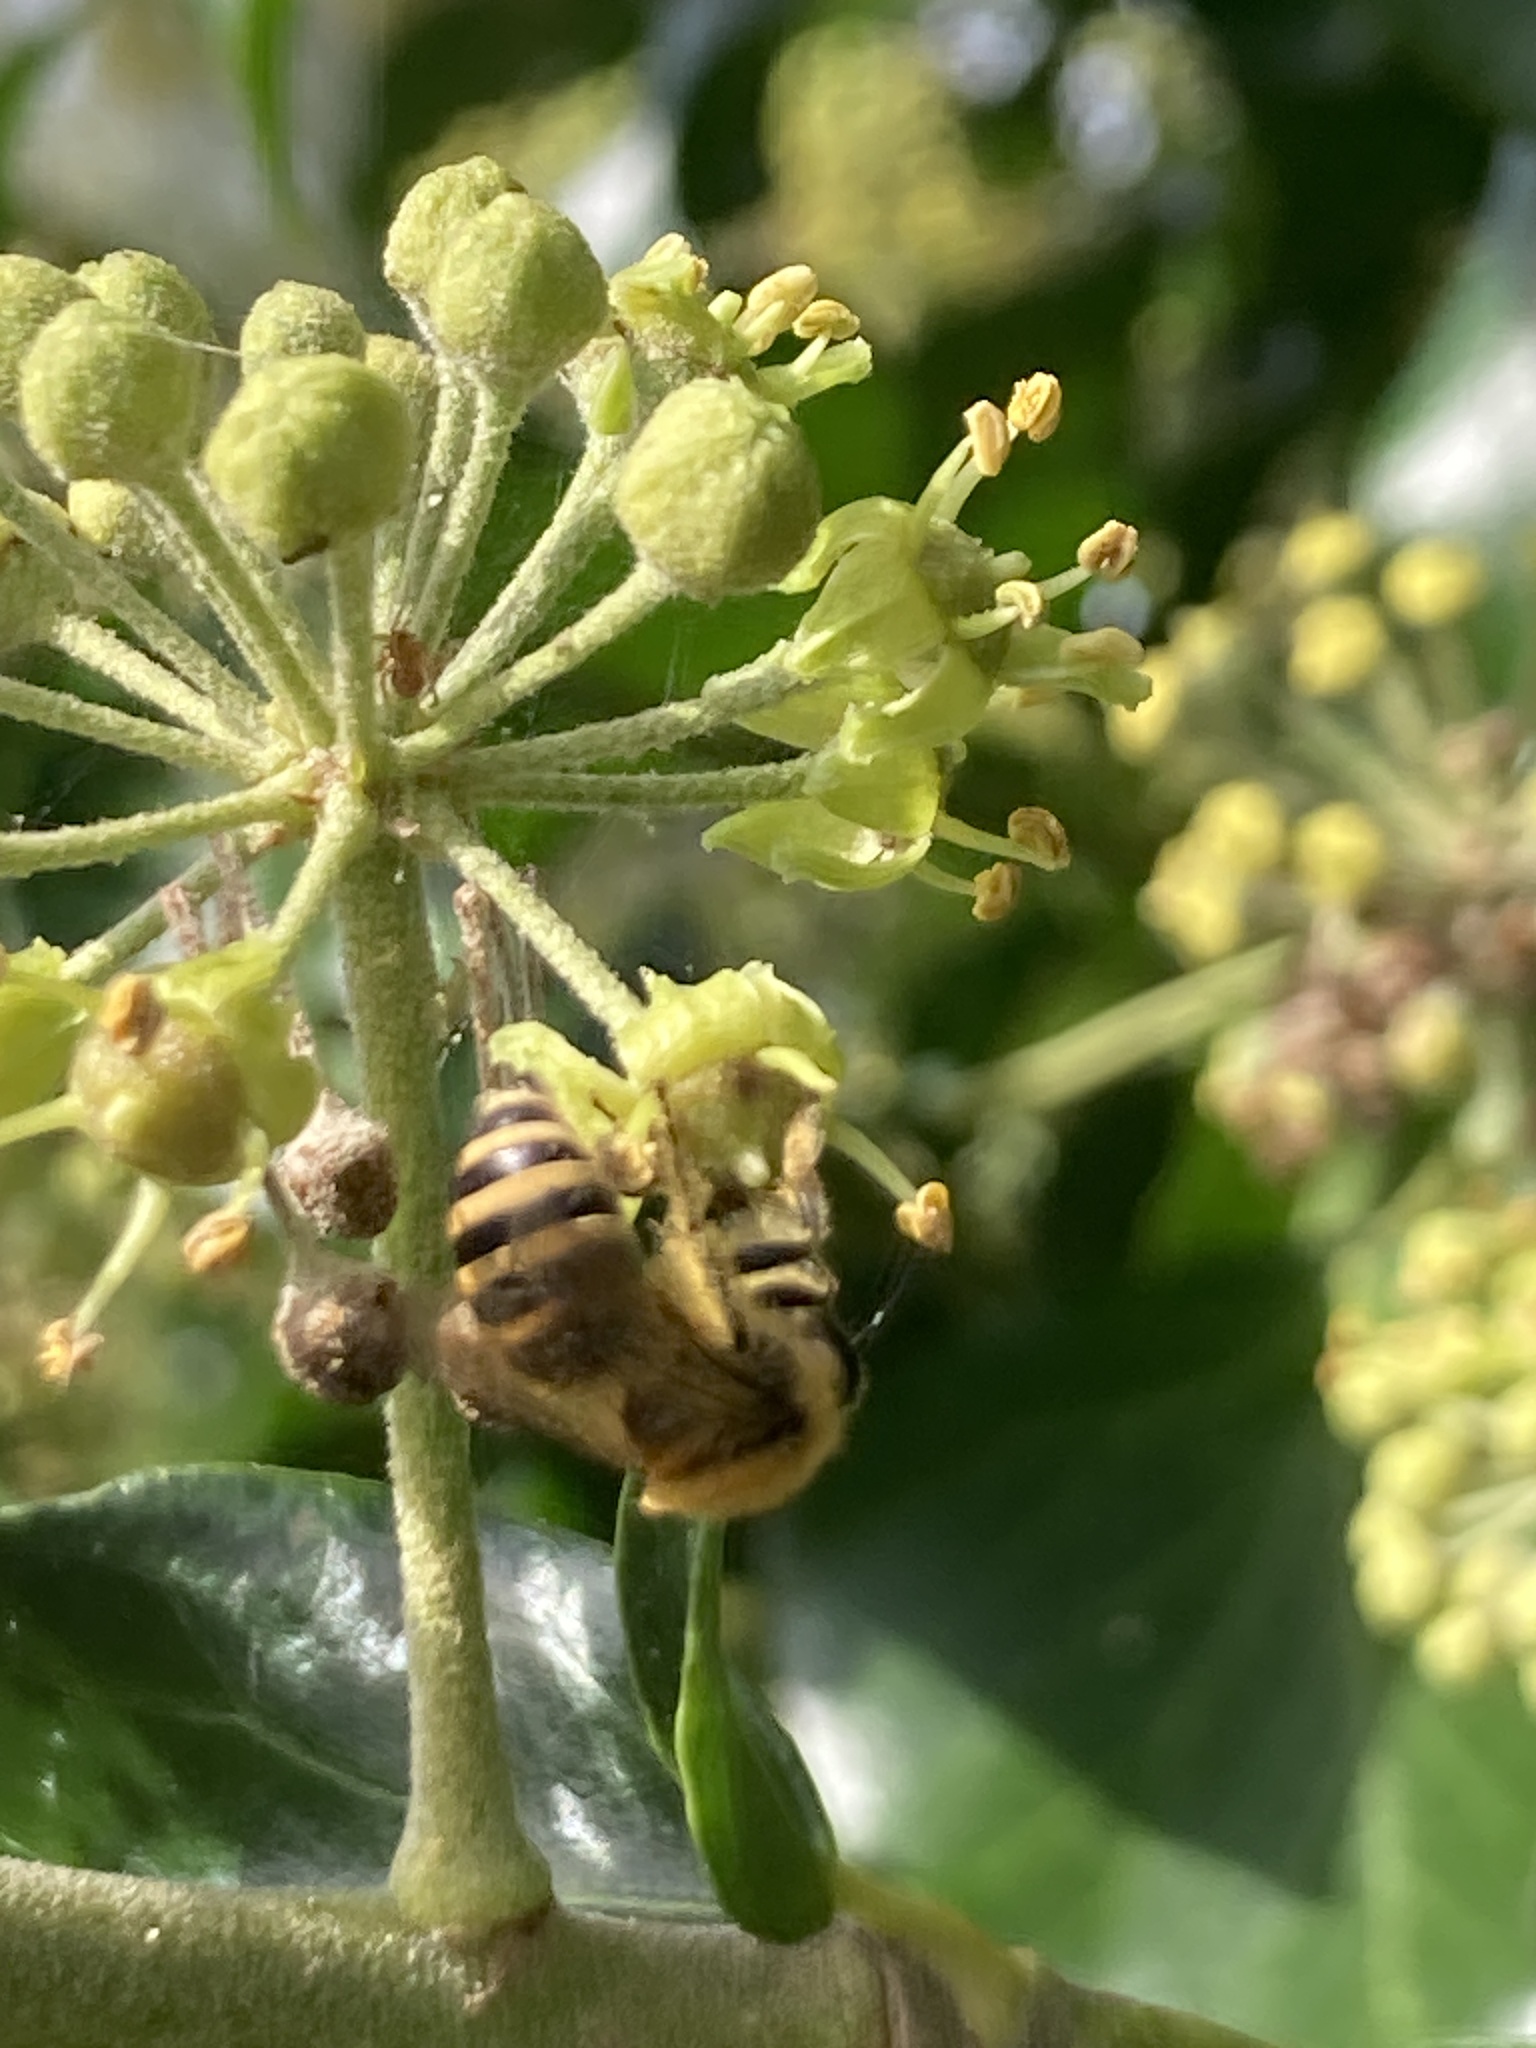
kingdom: Animalia
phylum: Arthropoda
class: Insecta
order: Hymenoptera
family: Colletidae
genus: Colletes
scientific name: Colletes hederae
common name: Ivy bee
